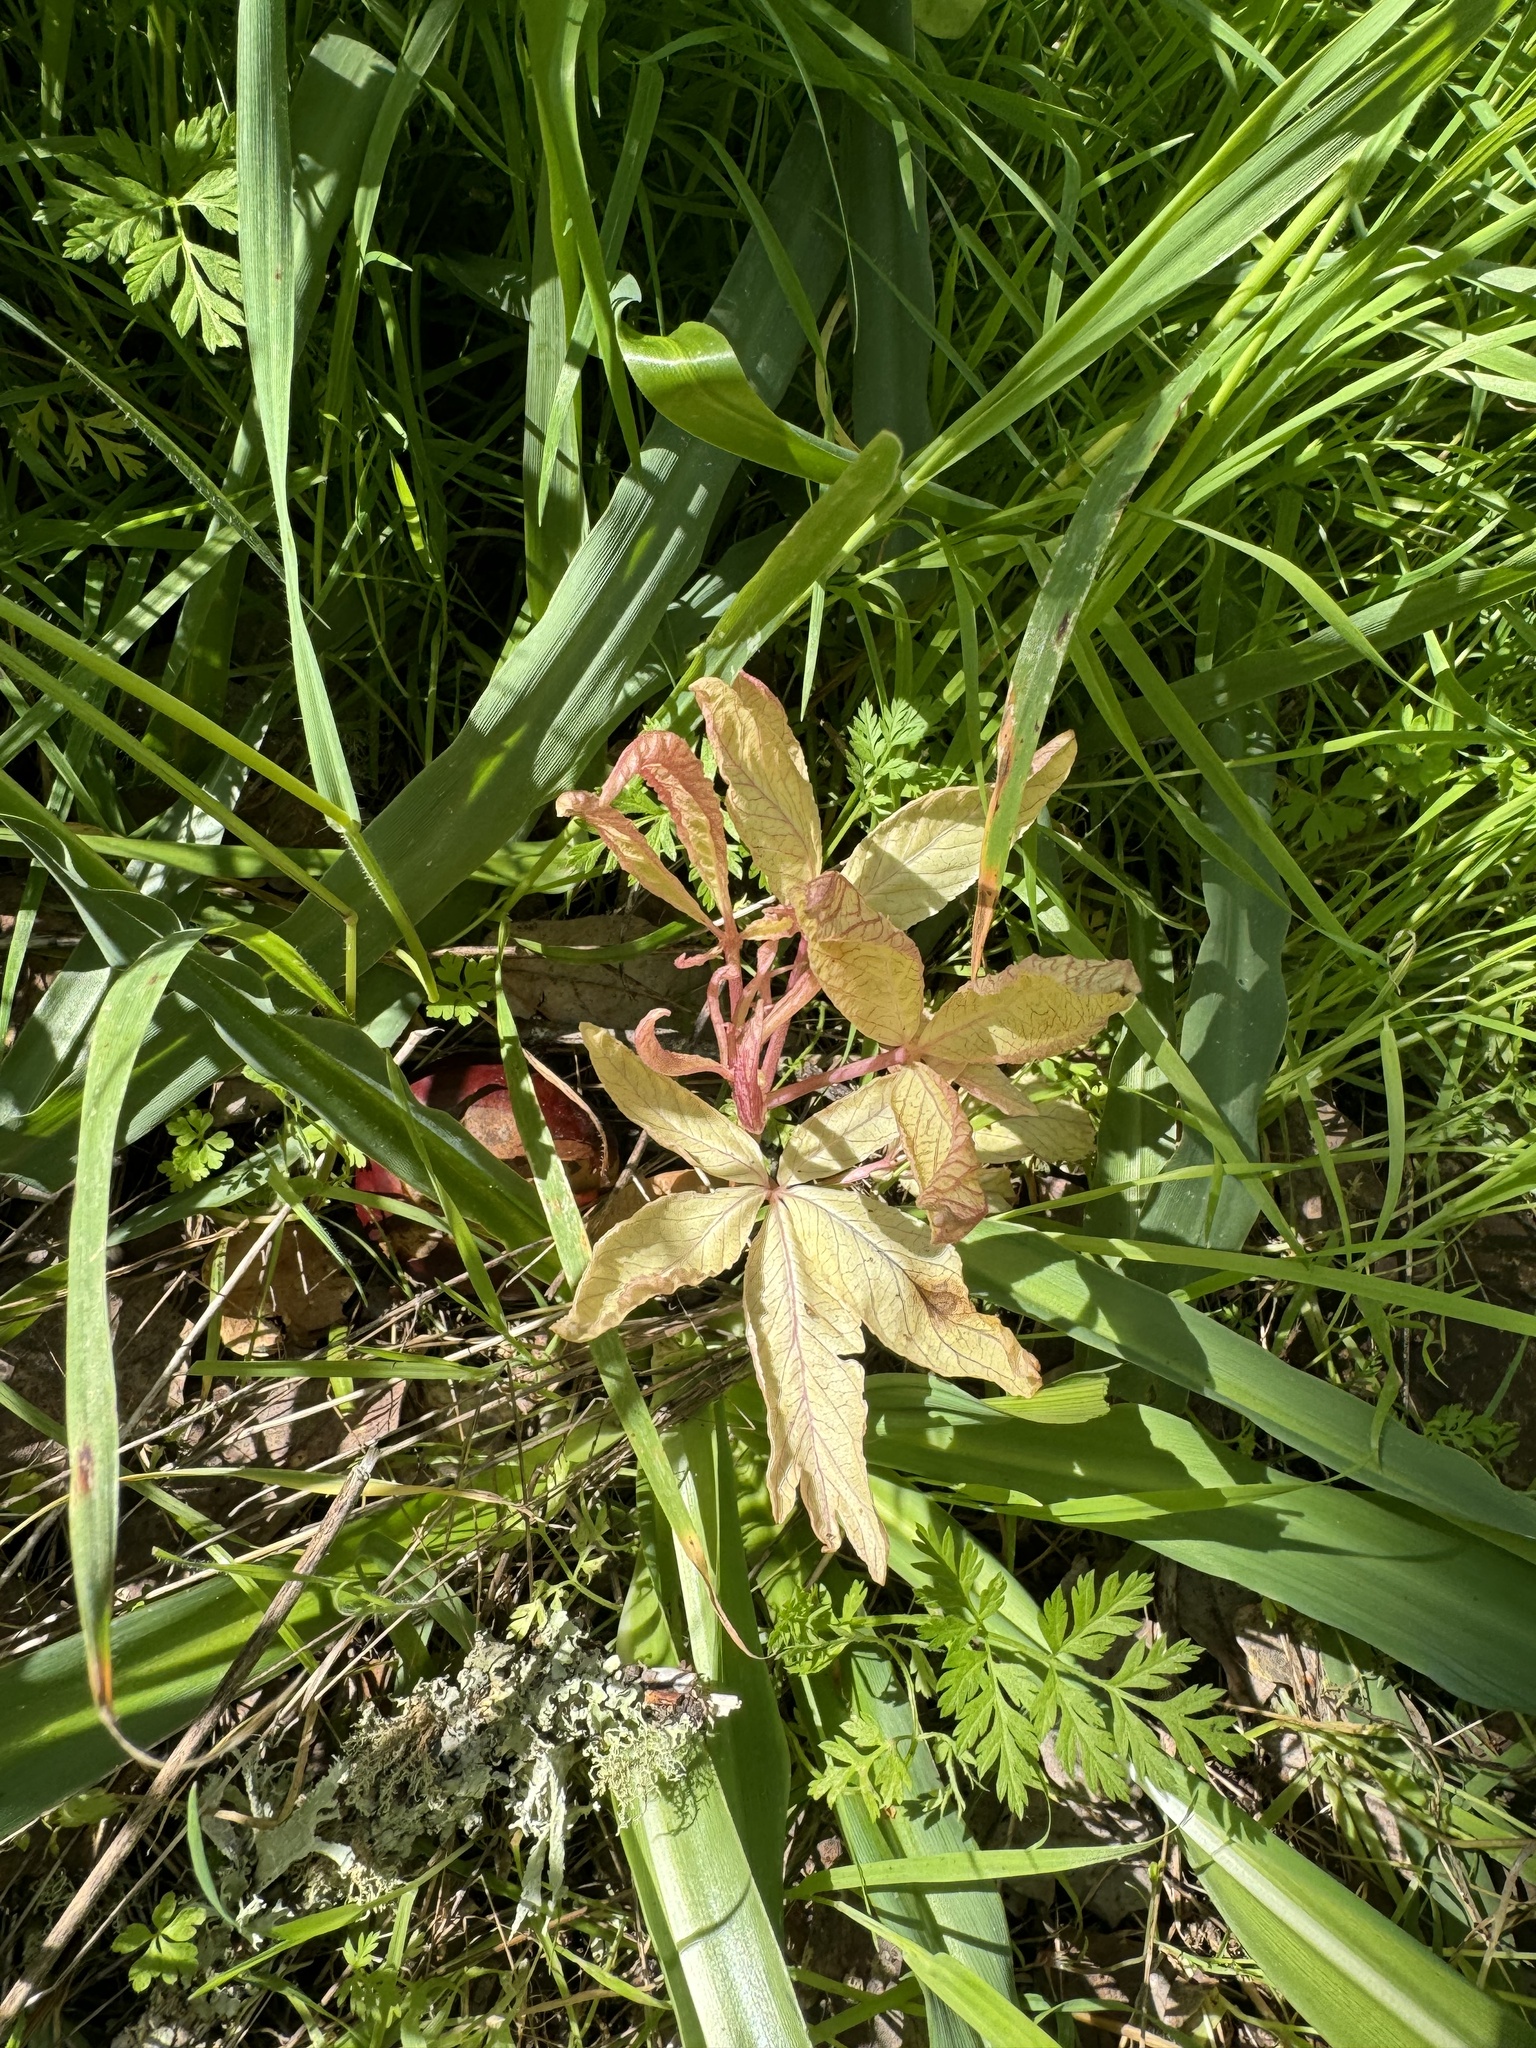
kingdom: Plantae
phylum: Tracheophyta
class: Magnoliopsida
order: Sapindales
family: Sapindaceae
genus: Aesculus
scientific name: Aesculus californica
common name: California buckeye
